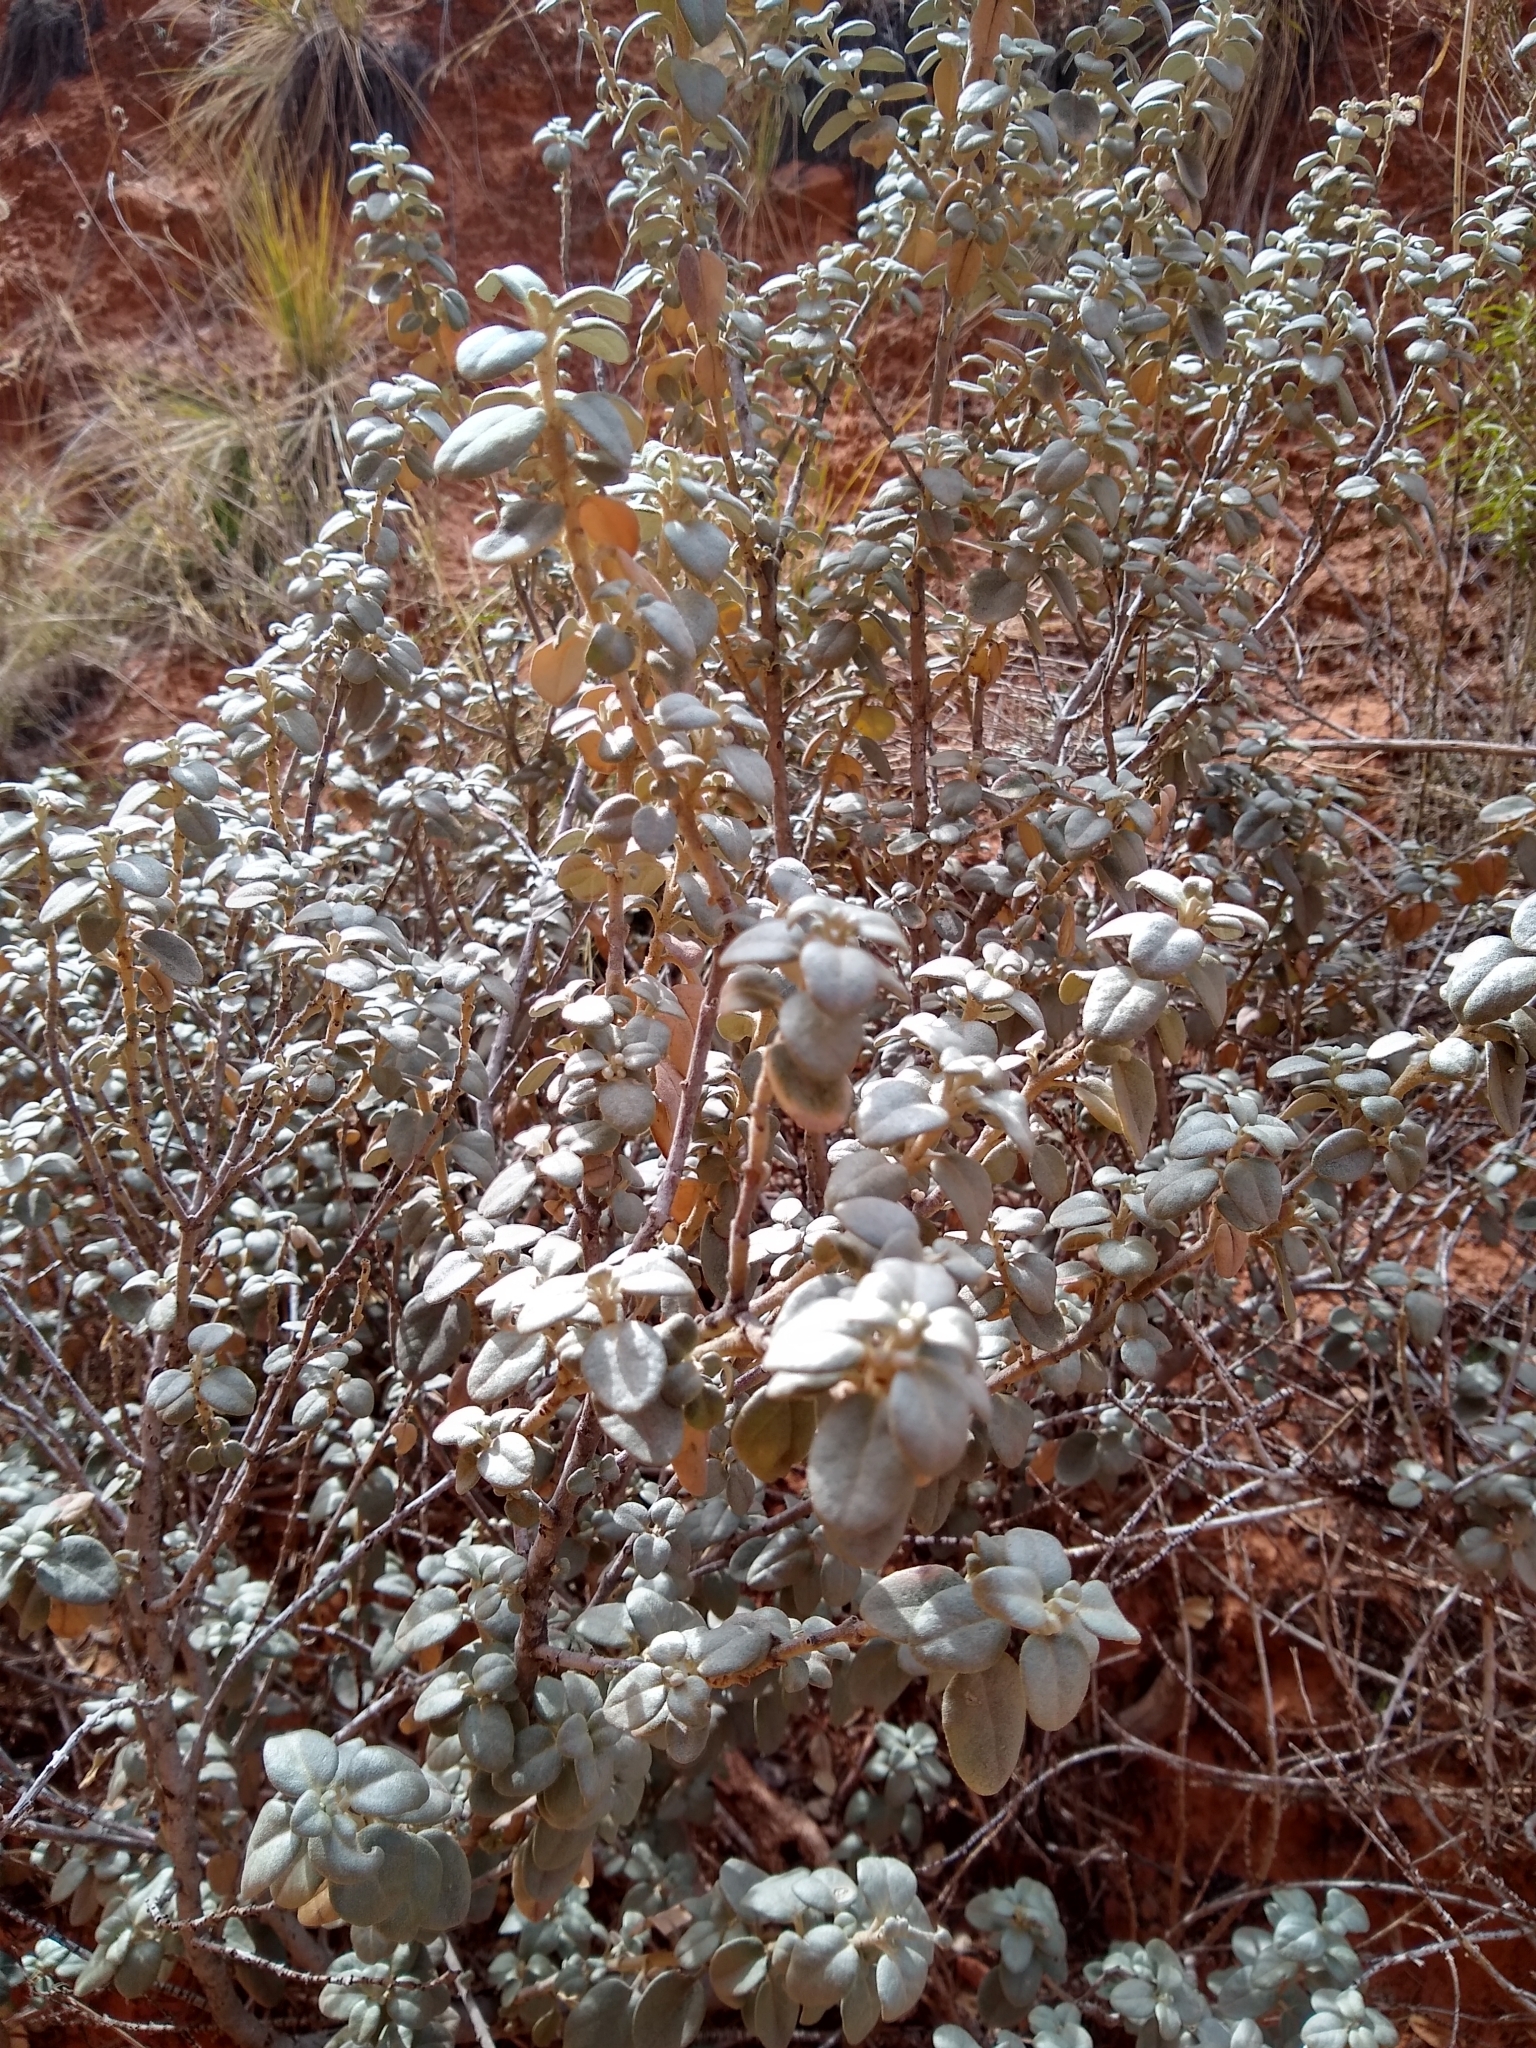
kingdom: Plantae
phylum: Tracheophyta
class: Magnoliopsida
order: Rosales
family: Elaeagnaceae
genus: Shepherdia
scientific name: Shepherdia rotundifolia
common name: Silverscale
